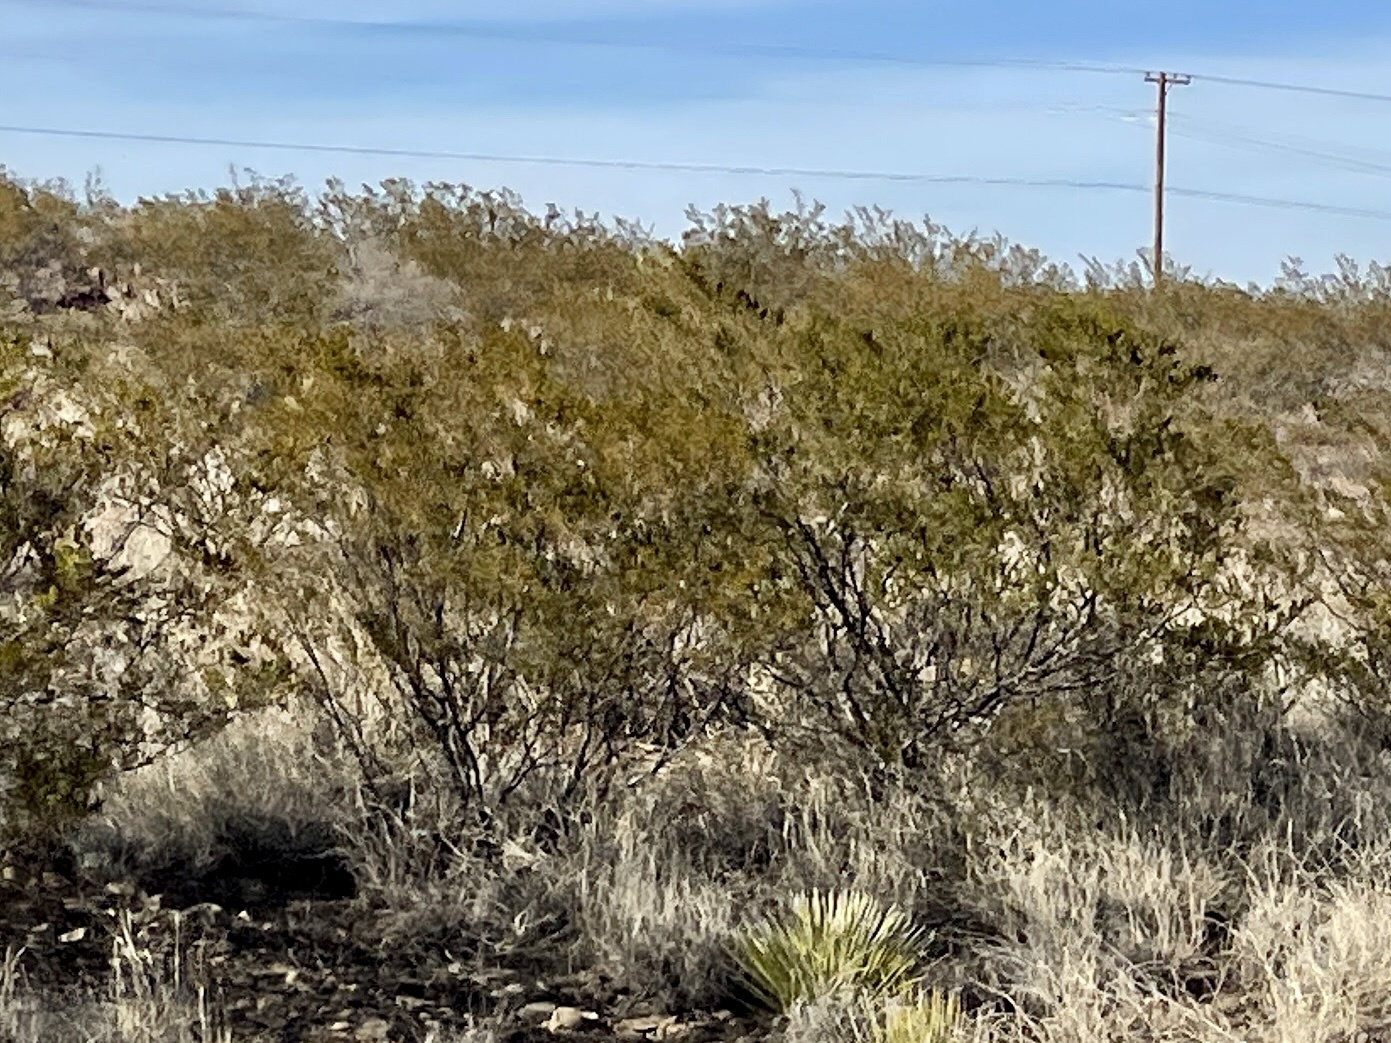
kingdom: Plantae
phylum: Tracheophyta
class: Magnoliopsida
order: Zygophyllales
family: Zygophyllaceae
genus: Larrea
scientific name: Larrea tridentata
